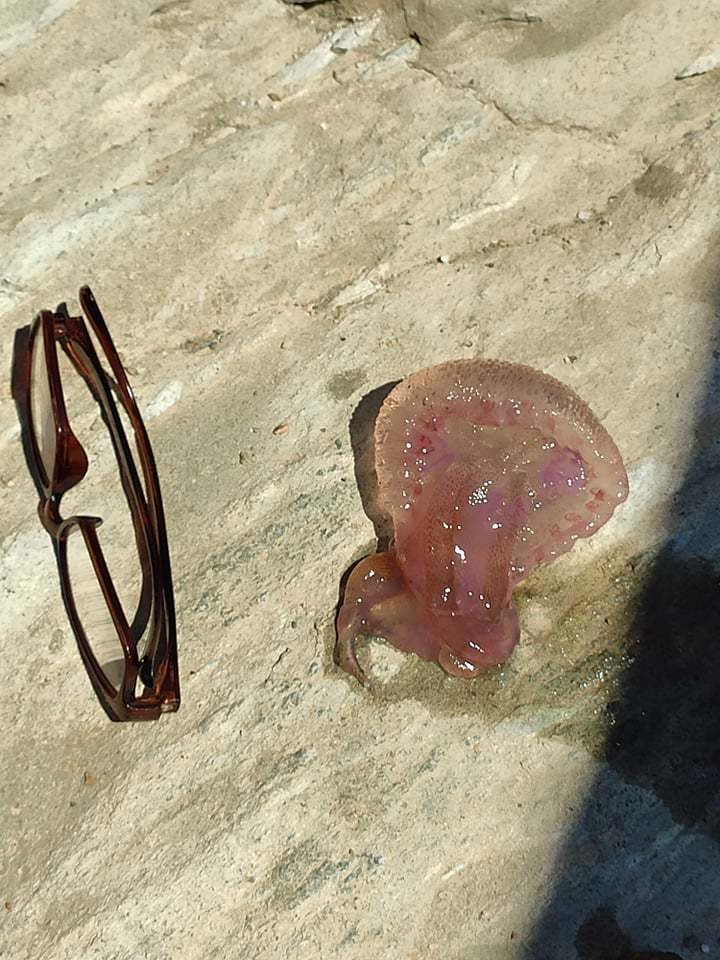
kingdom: Animalia
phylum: Cnidaria
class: Scyphozoa
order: Semaeostomeae
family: Pelagiidae
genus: Pelagia
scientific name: Pelagia noctiluca
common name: Mauve stinger
